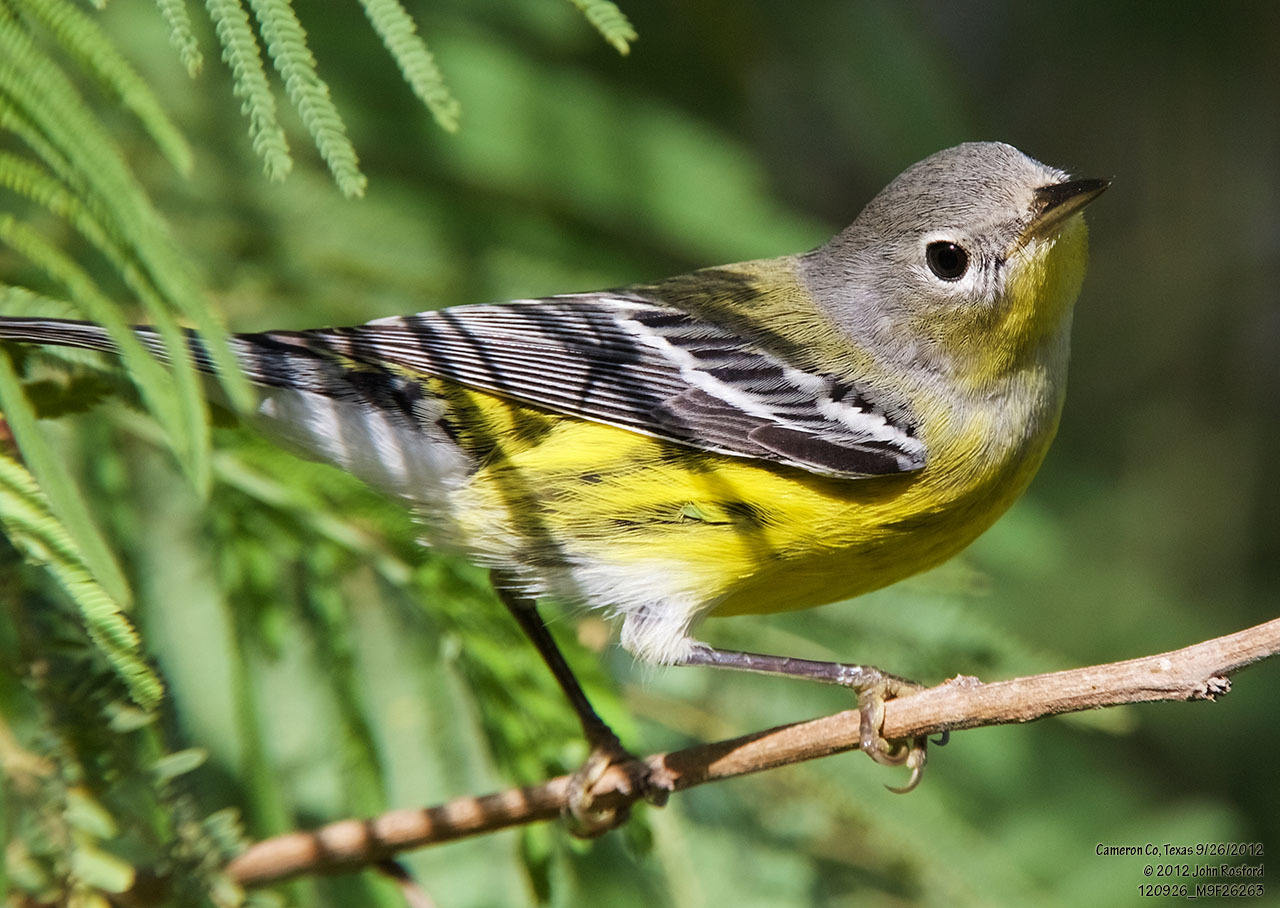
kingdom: Animalia
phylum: Chordata
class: Aves
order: Passeriformes
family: Parulidae
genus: Setophaga
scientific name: Setophaga magnolia
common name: Magnolia warbler
